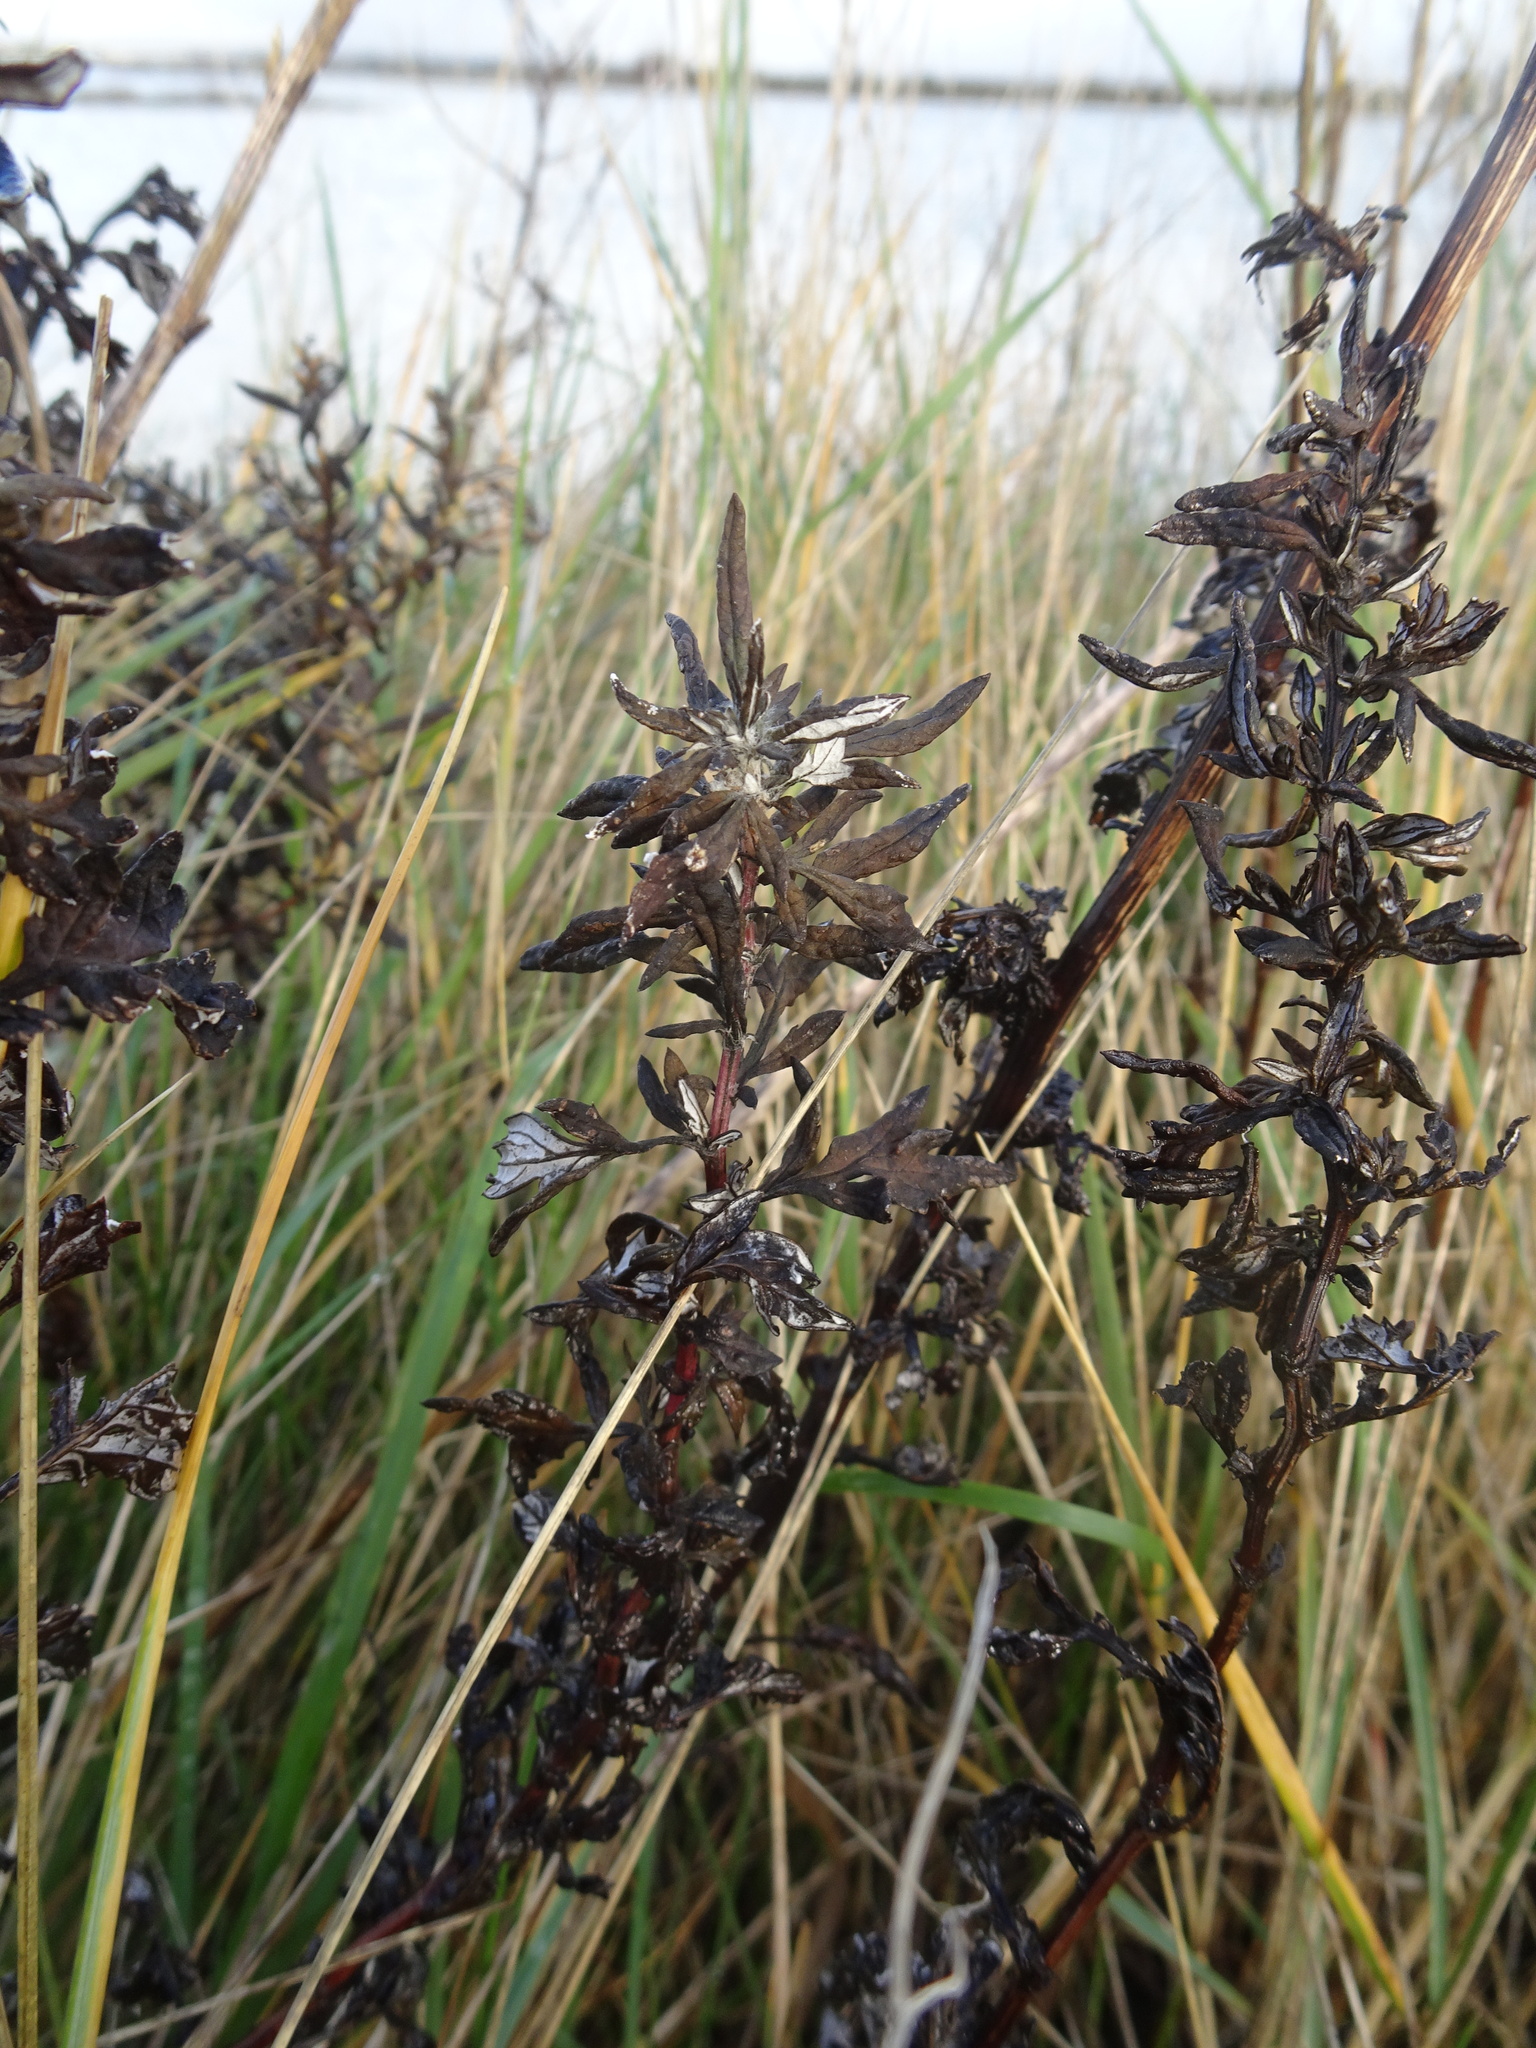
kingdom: Plantae
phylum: Tracheophyta
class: Magnoliopsida
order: Asterales
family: Asteraceae
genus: Artemisia
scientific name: Artemisia vulgaris
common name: Mugwort
